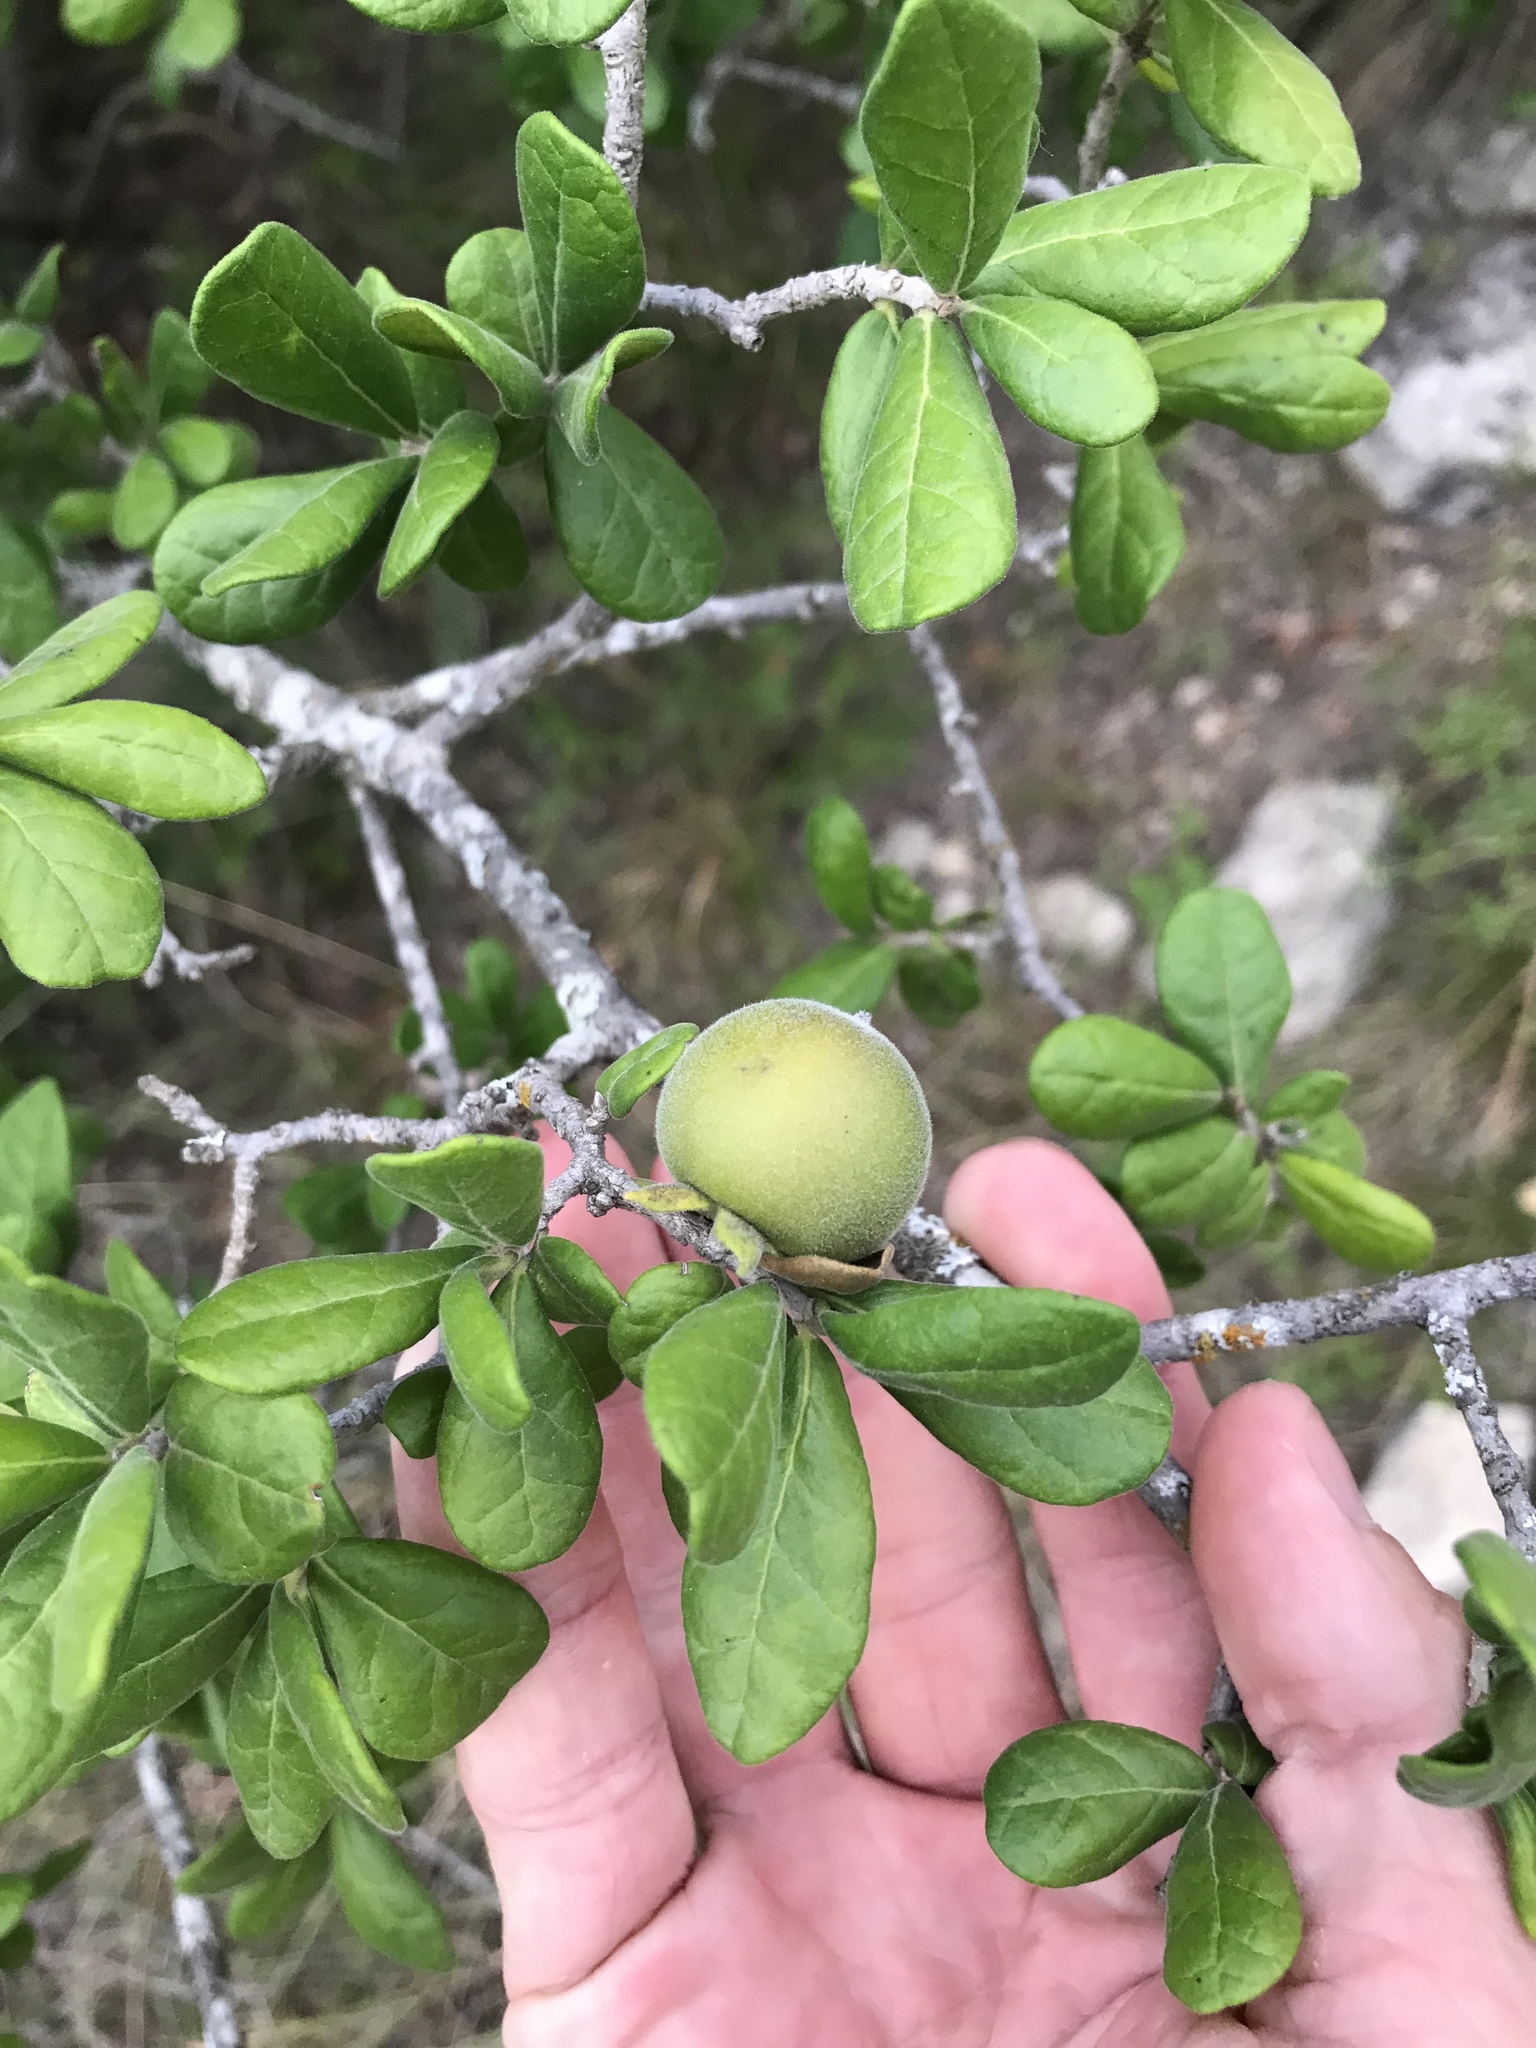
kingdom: Plantae
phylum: Tracheophyta
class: Magnoliopsida
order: Ericales
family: Ebenaceae
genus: Diospyros
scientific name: Diospyros texana
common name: Texas persimmon
